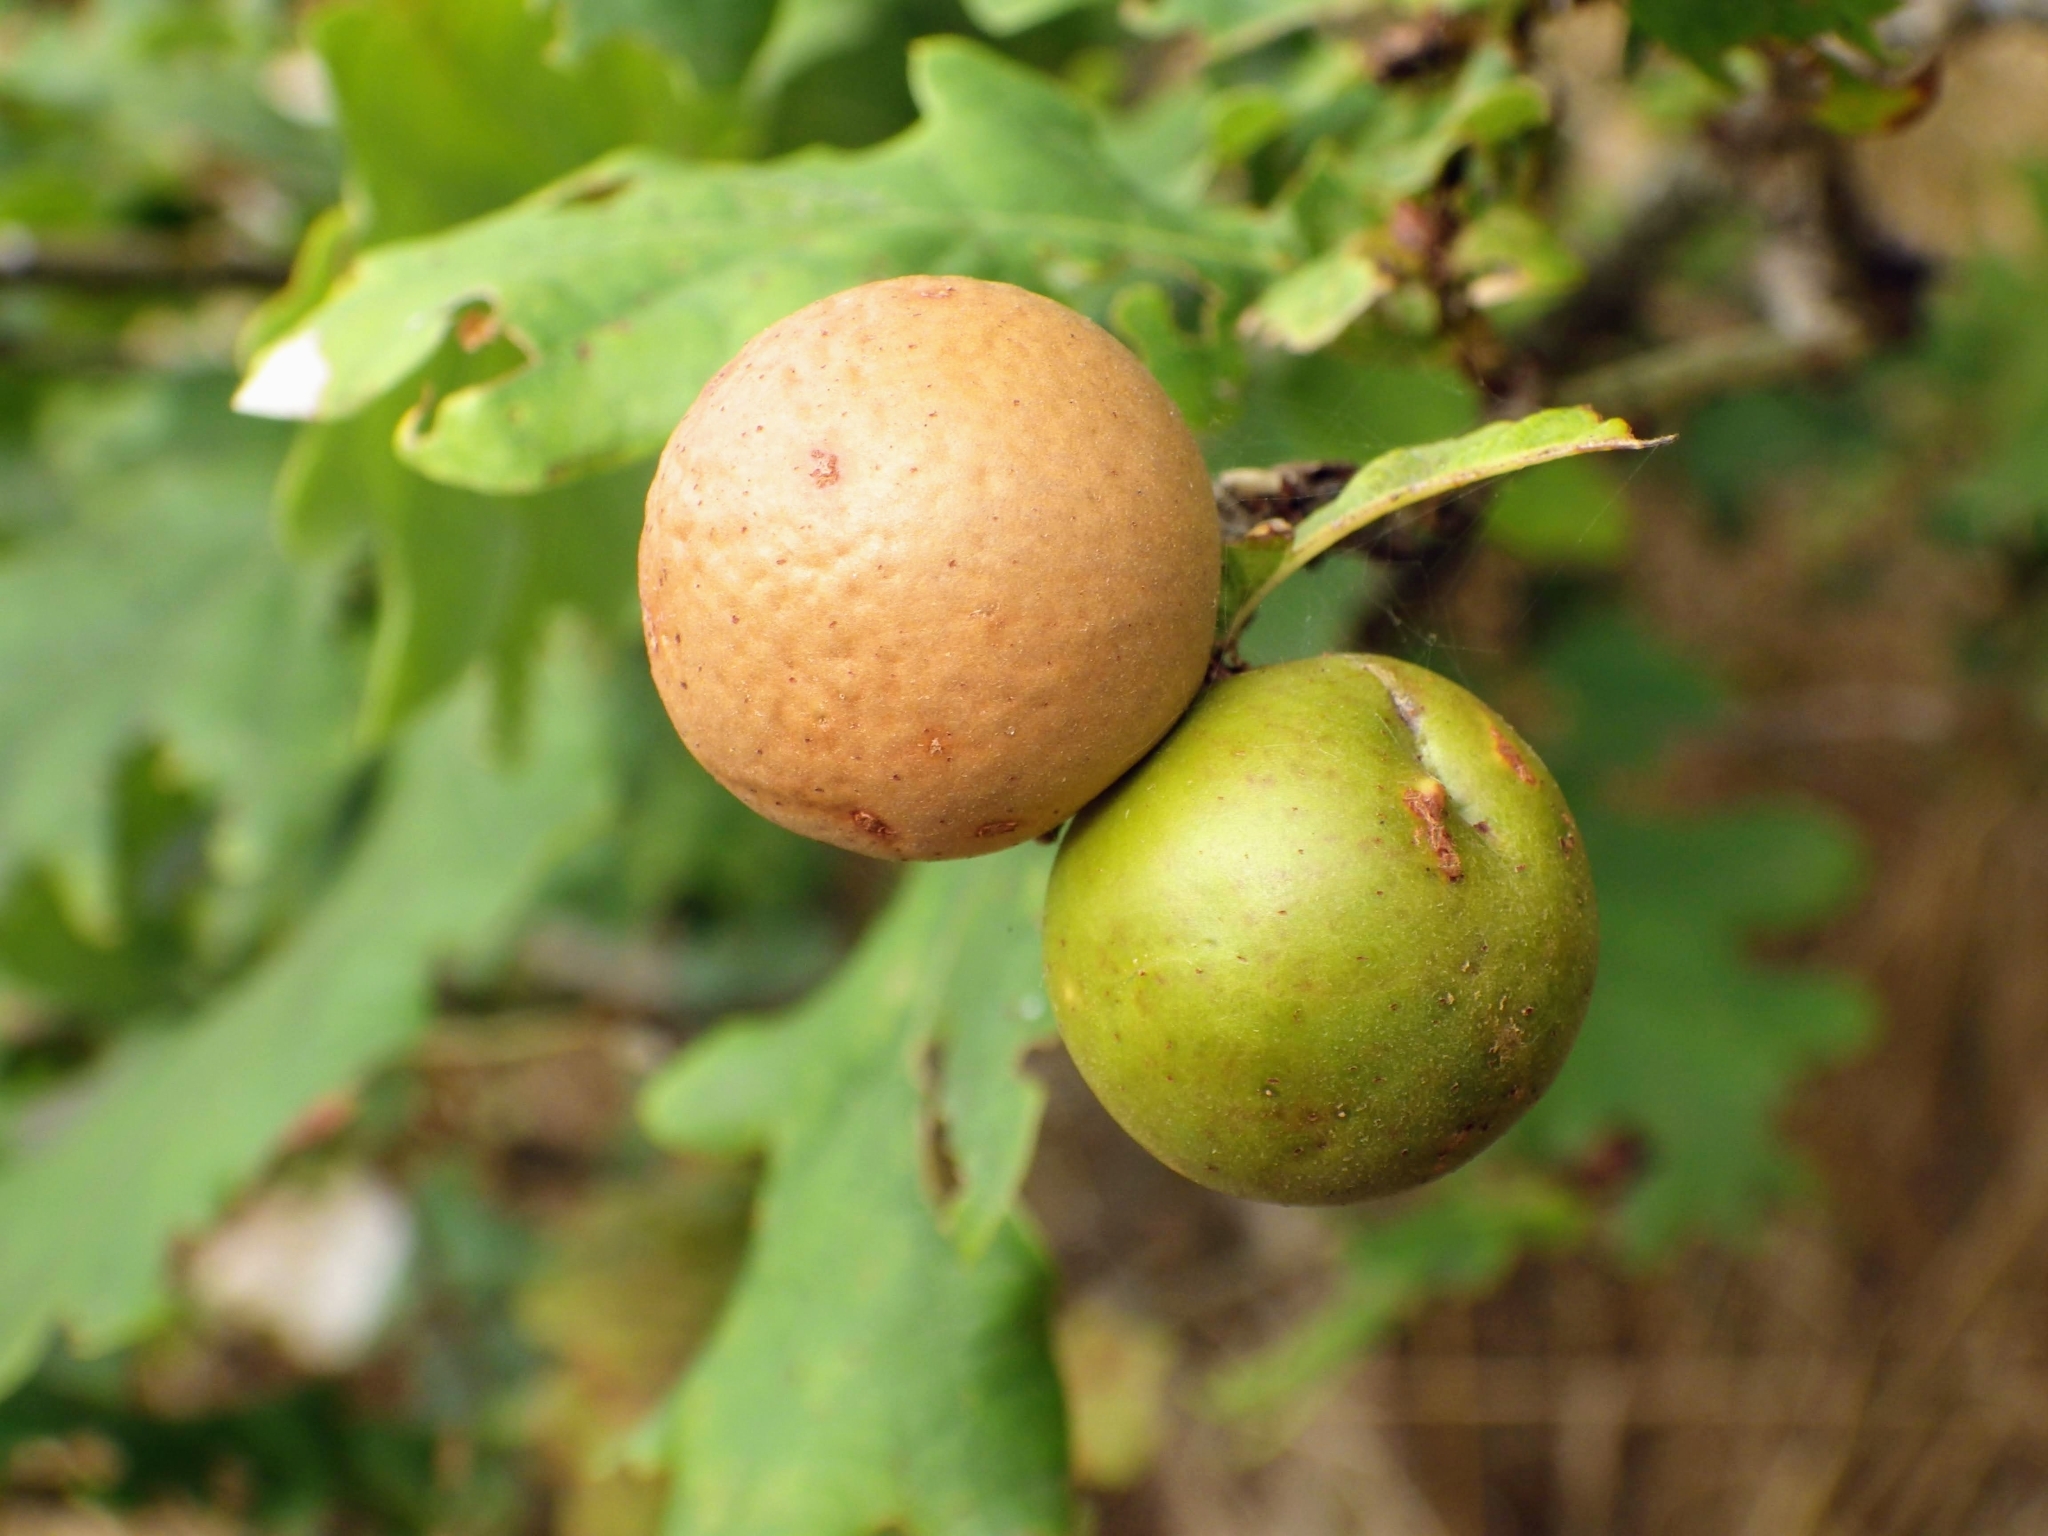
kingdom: Animalia
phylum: Arthropoda
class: Insecta
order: Hymenoptera
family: Cynipidae
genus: Andricus
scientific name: Andricus kollari
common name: Marble gall
